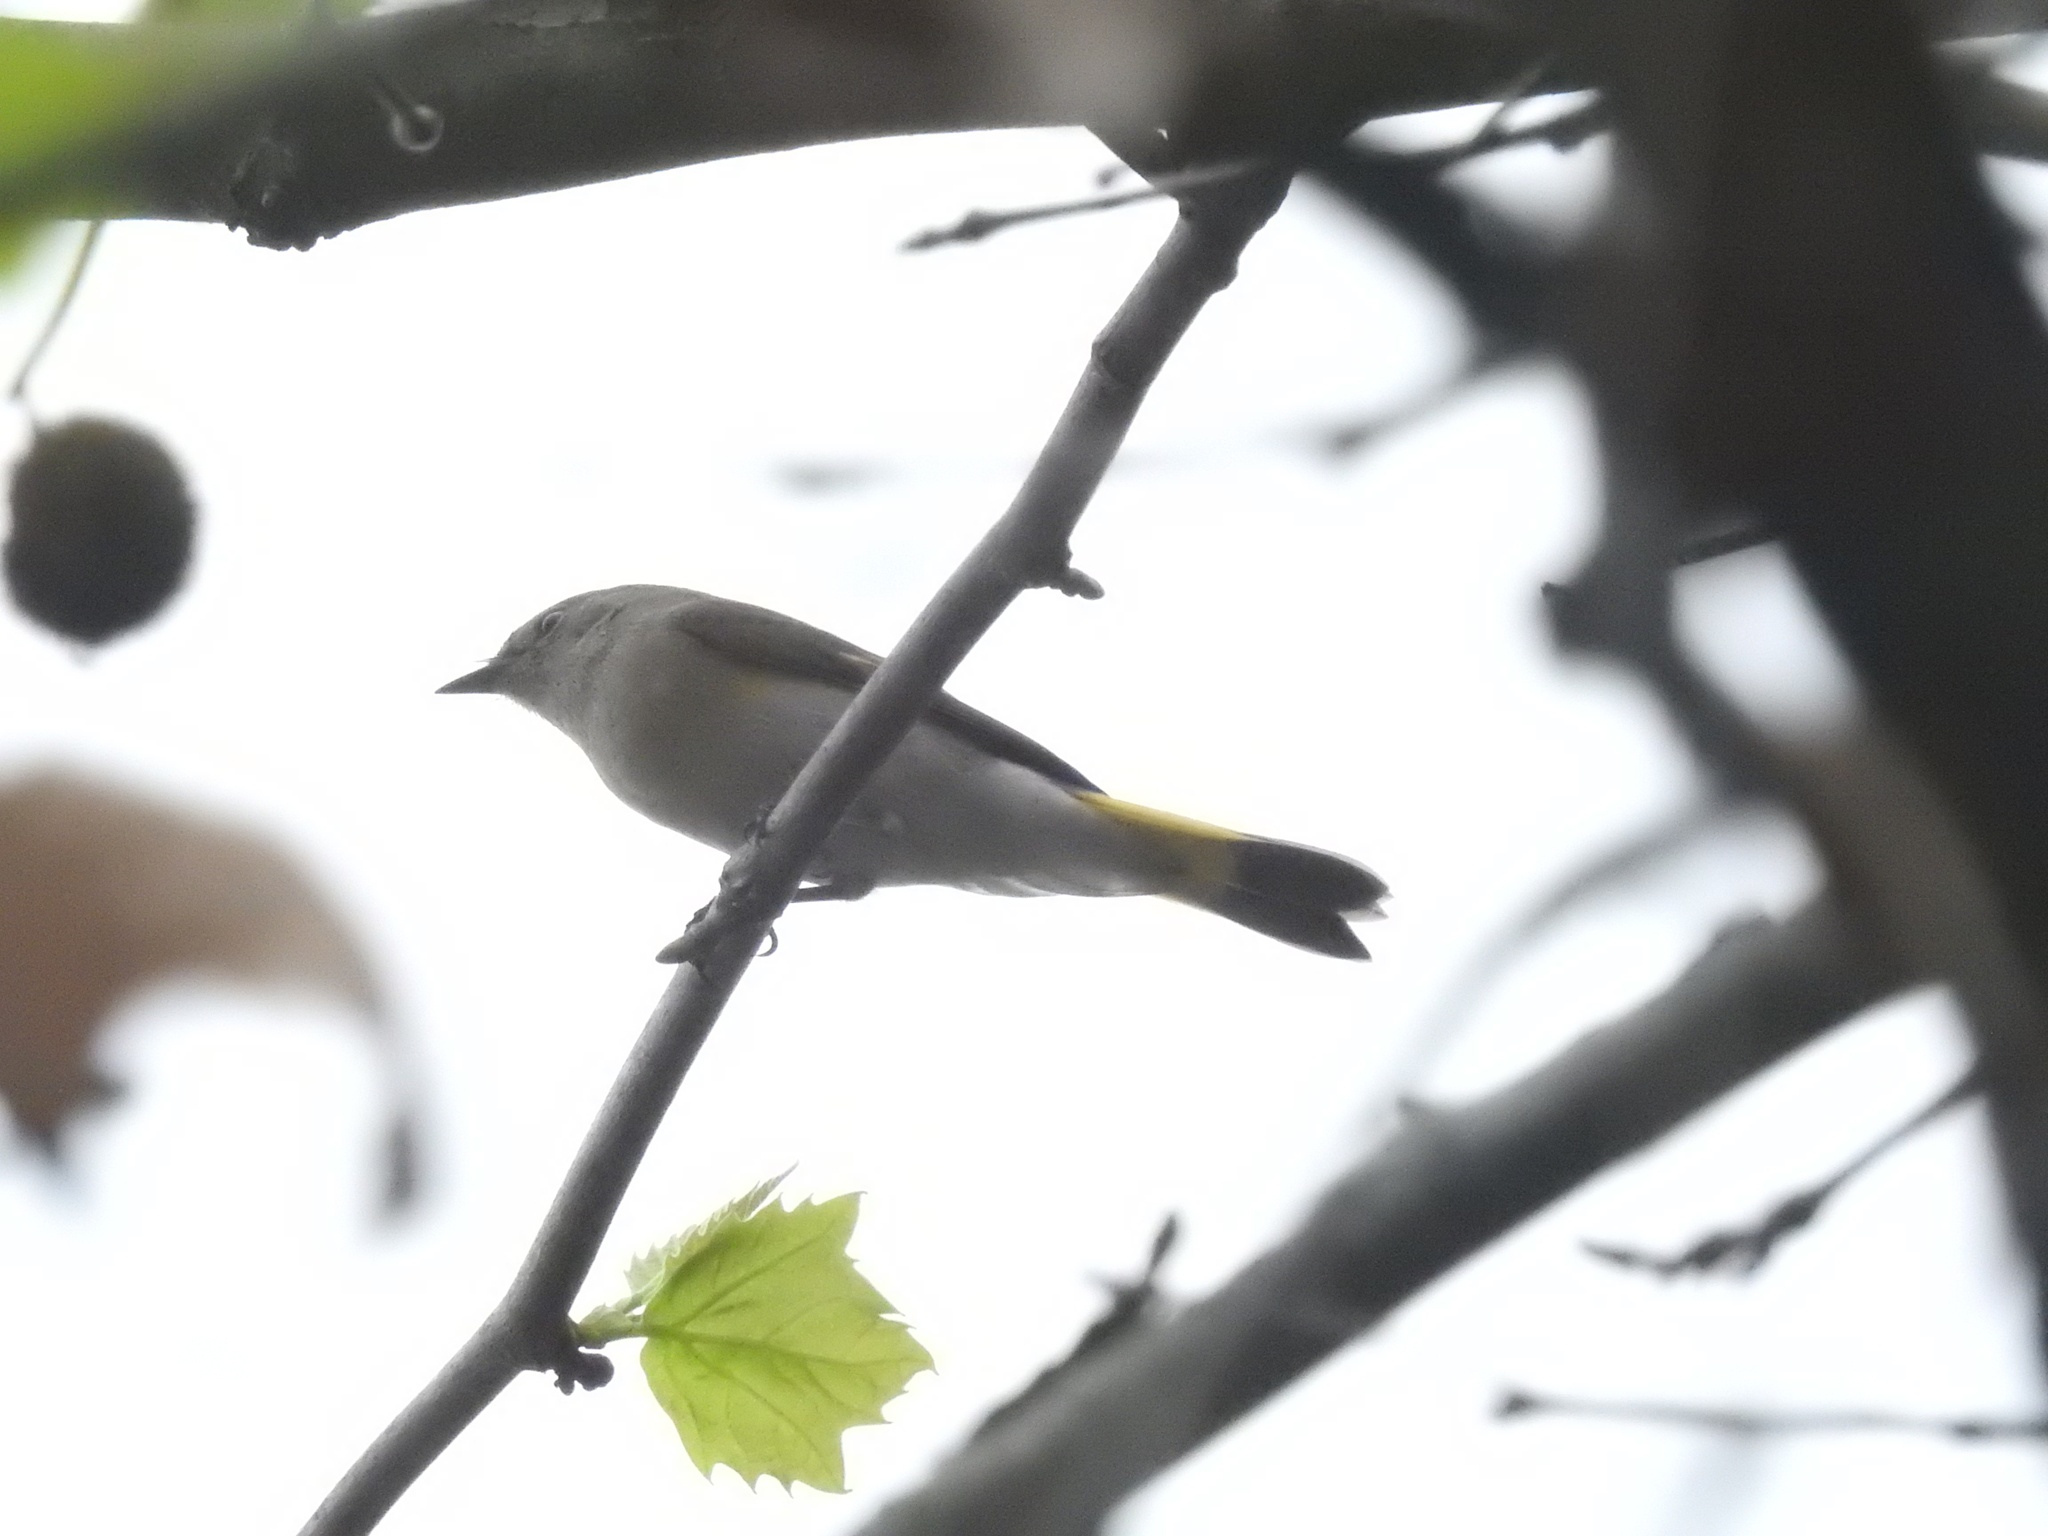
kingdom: Animalia
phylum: Chordata
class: Aves
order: Passeriformes
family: Parulidae
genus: Setophaga
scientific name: Setophaga ruticilla
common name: American redstart
